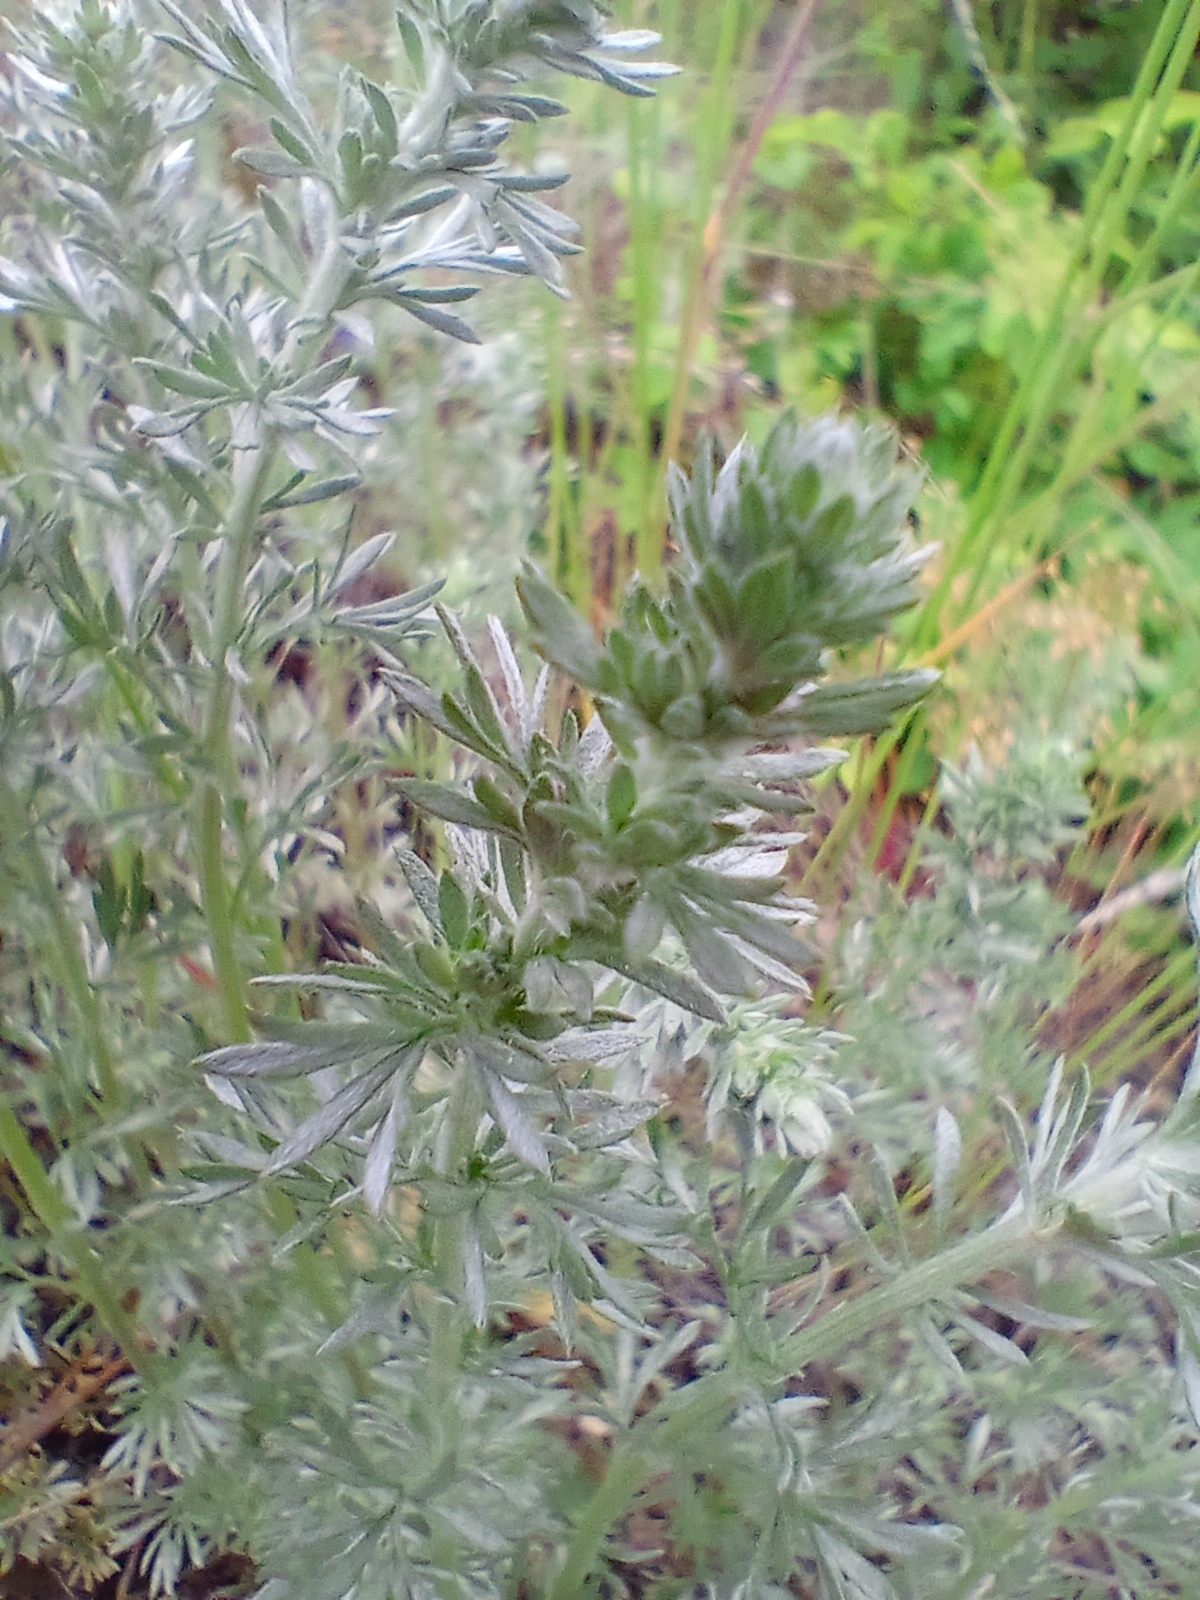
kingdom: Plantae
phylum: Tracheophyta
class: Magnoliopsida
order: Asterales
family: Asteraceae
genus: Artemisia
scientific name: Artemisia frigida
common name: Prairie sagewort
